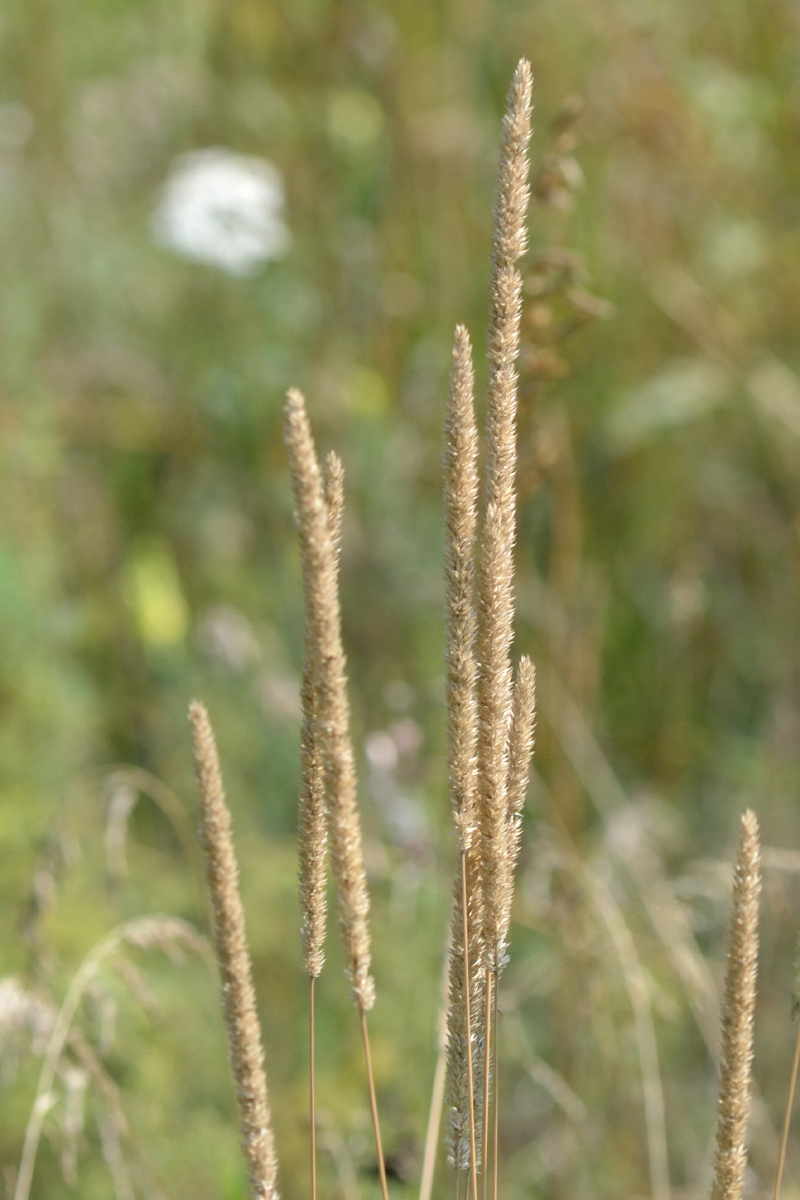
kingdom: Plantae
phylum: Tracheophyta
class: Liliopsida
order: Poales
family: Poaceae
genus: Phleum
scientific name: Phleum phleoides
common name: Purple-stem cat's-tail
